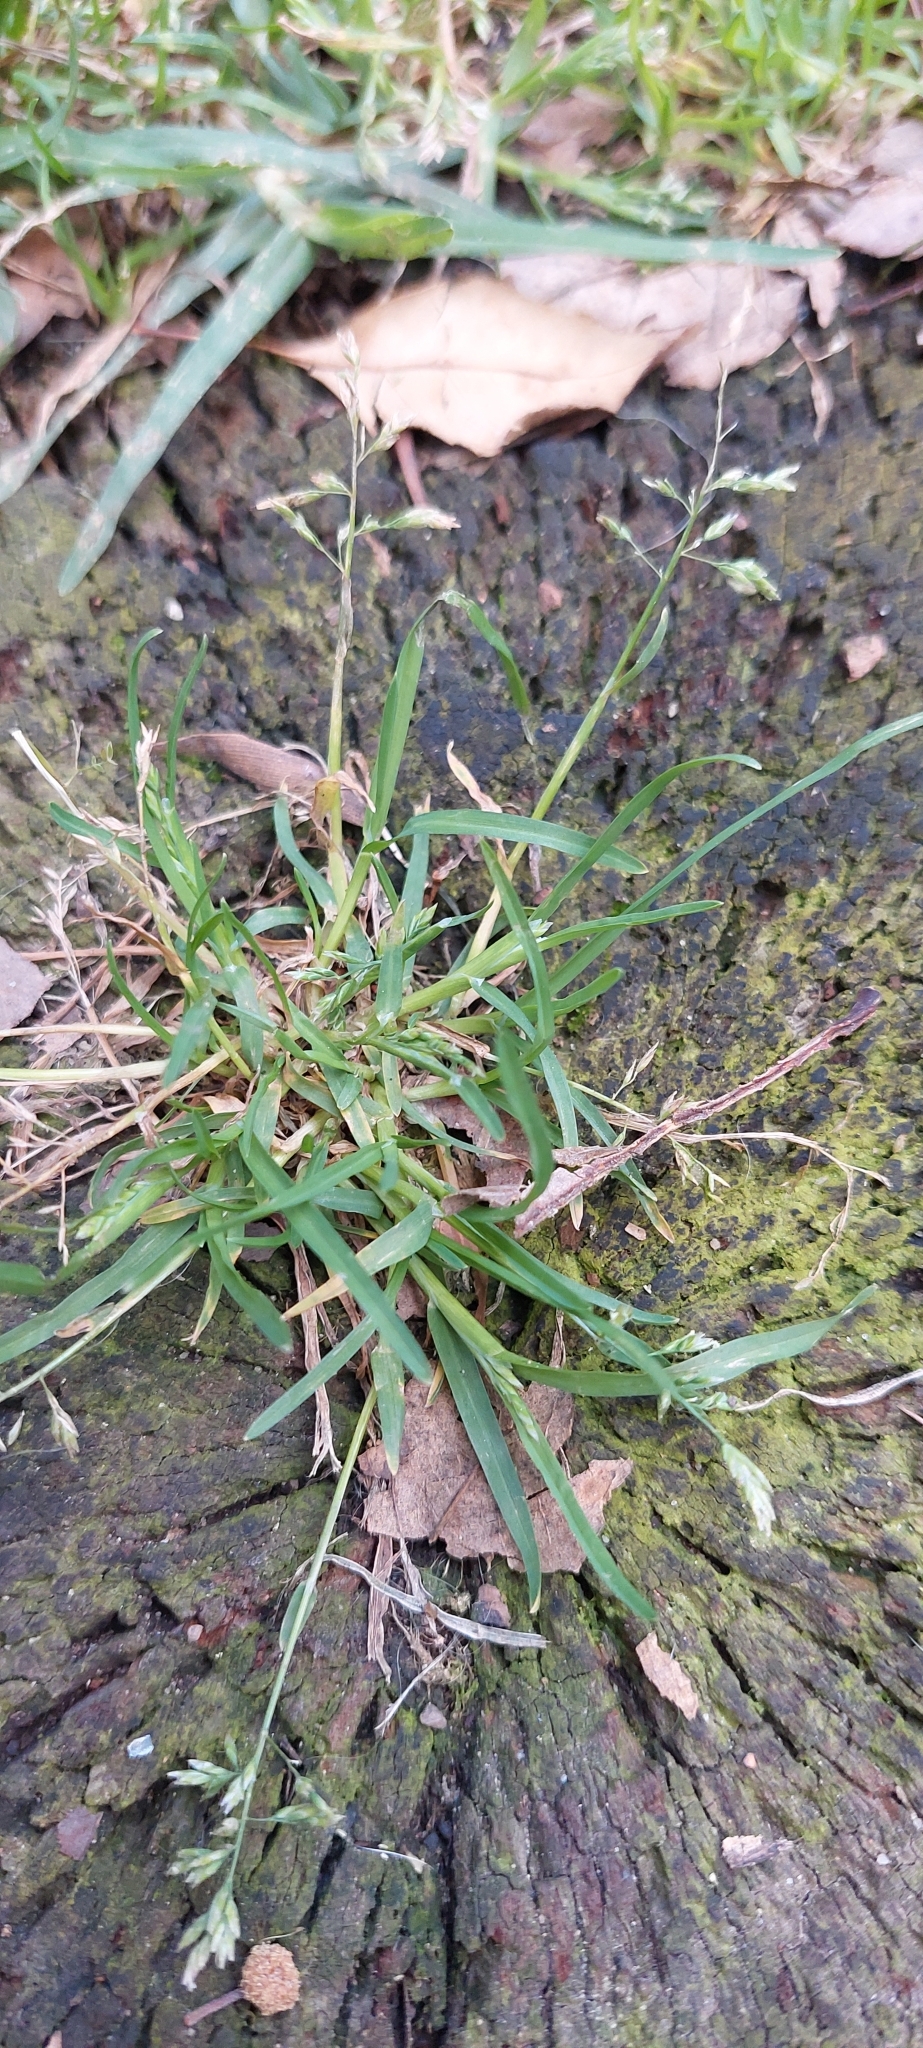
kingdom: Plantae
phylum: Tracheophyta
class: Liliopsida
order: Poales
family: Poaceae
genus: Poa
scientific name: Poa annua
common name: Annual bluegrass
